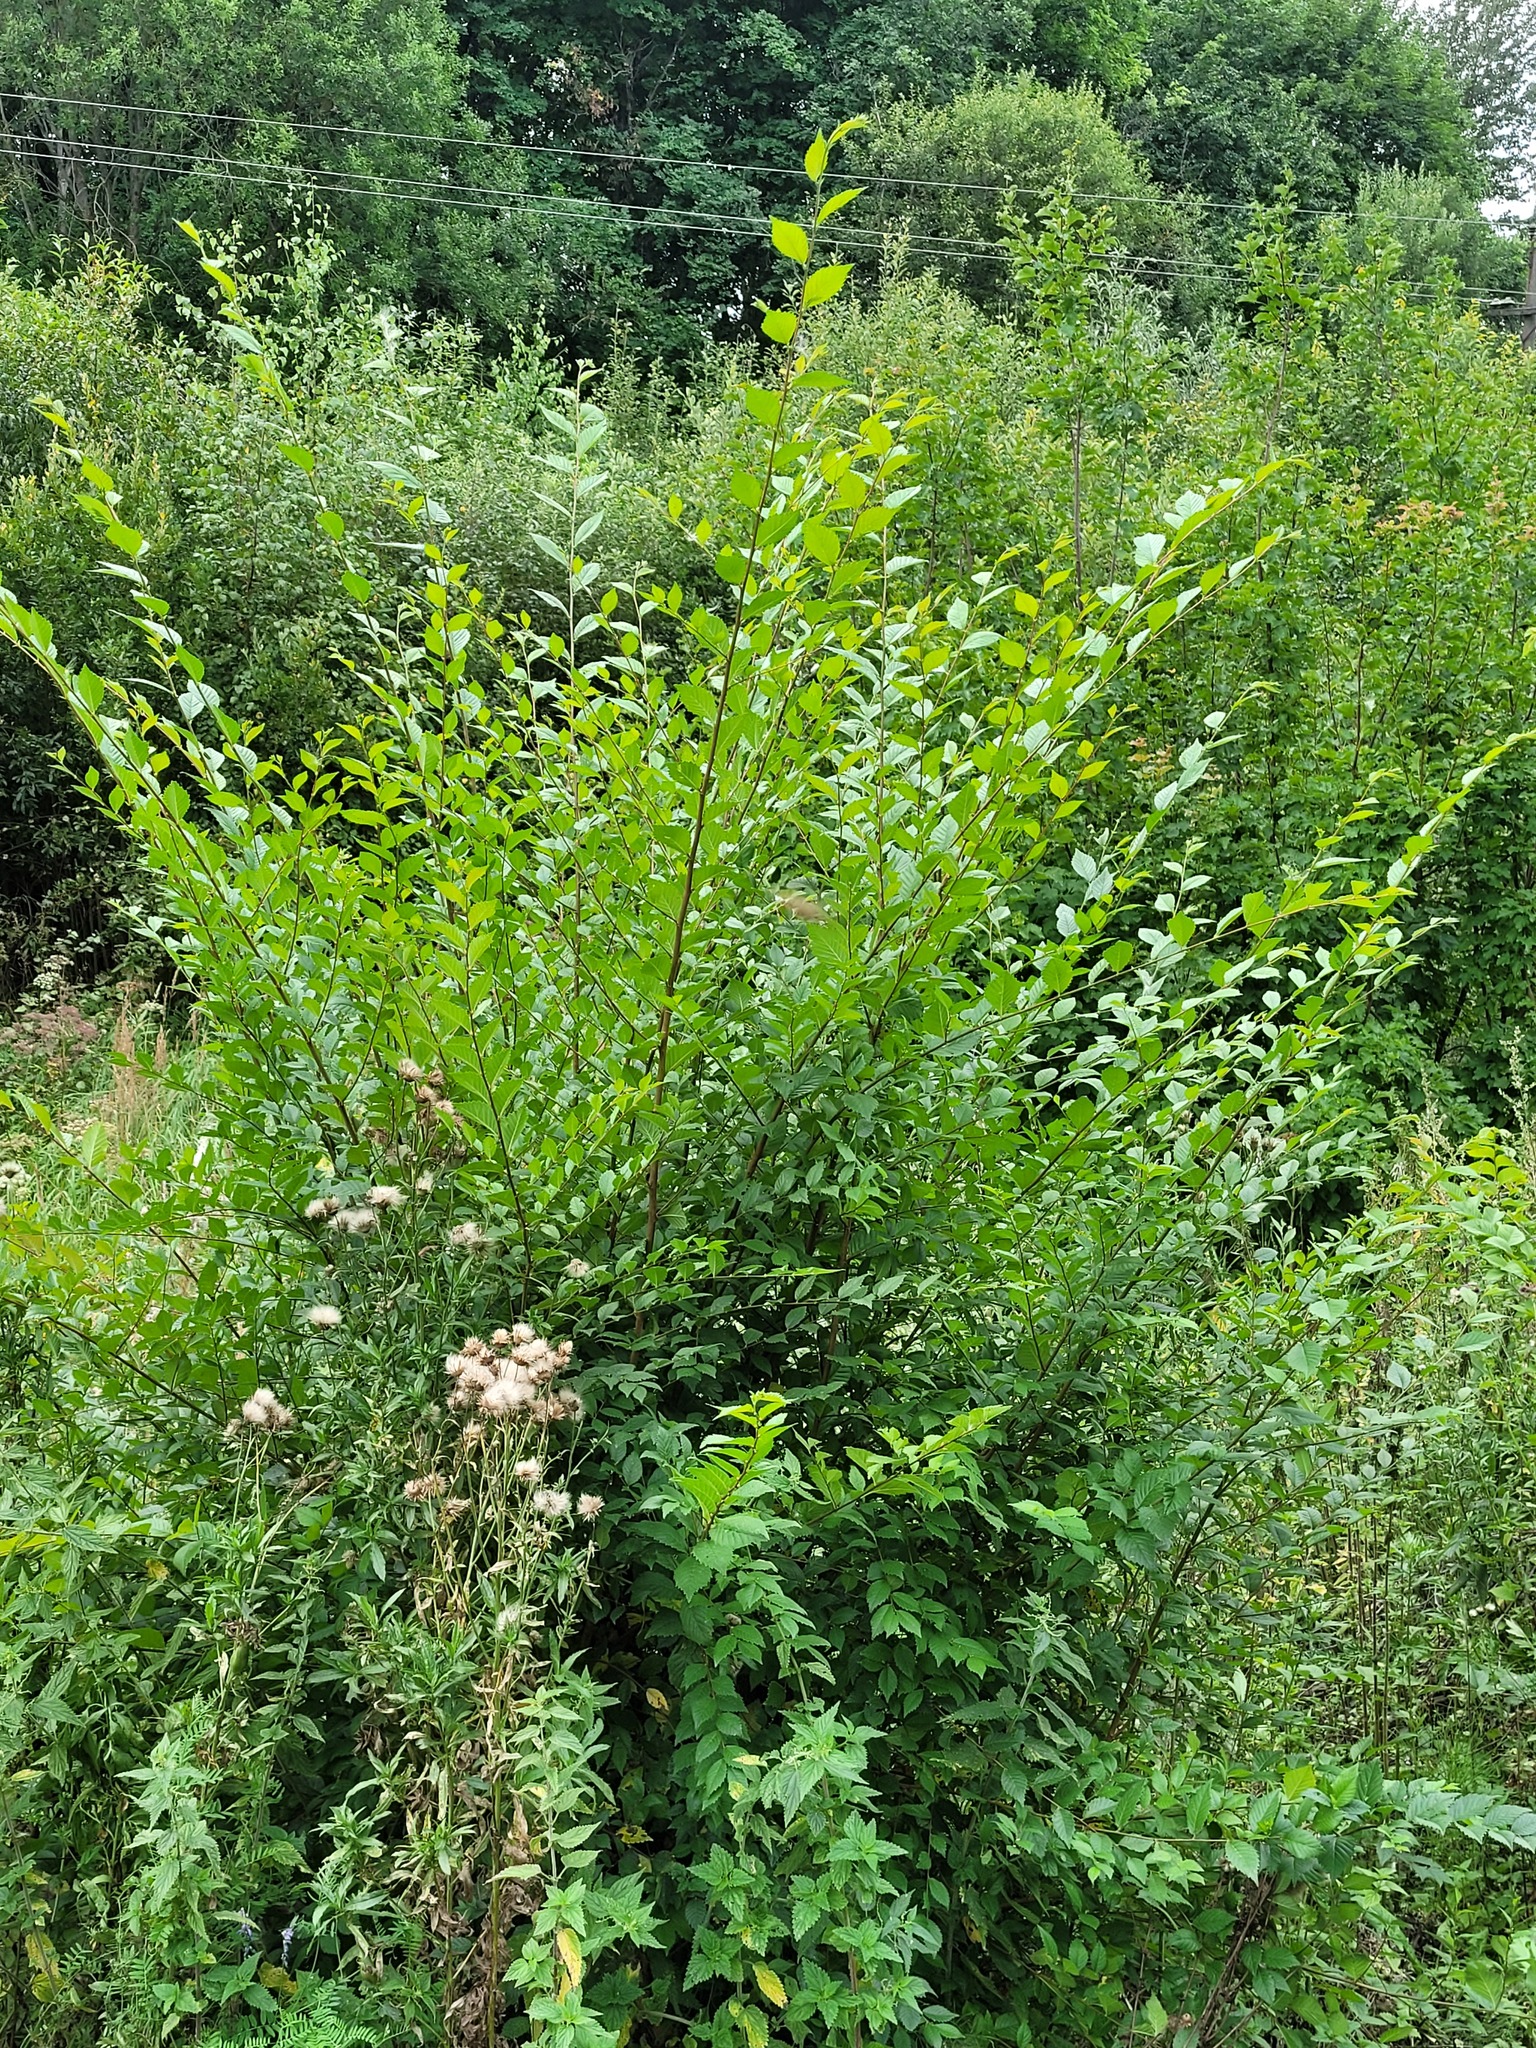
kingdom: Plantae
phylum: Tracheophyta
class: Magnoliopsida
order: Rosales
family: Ulmaceae
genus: Ulmus
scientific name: Ulmus pumila
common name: Siberian elm
